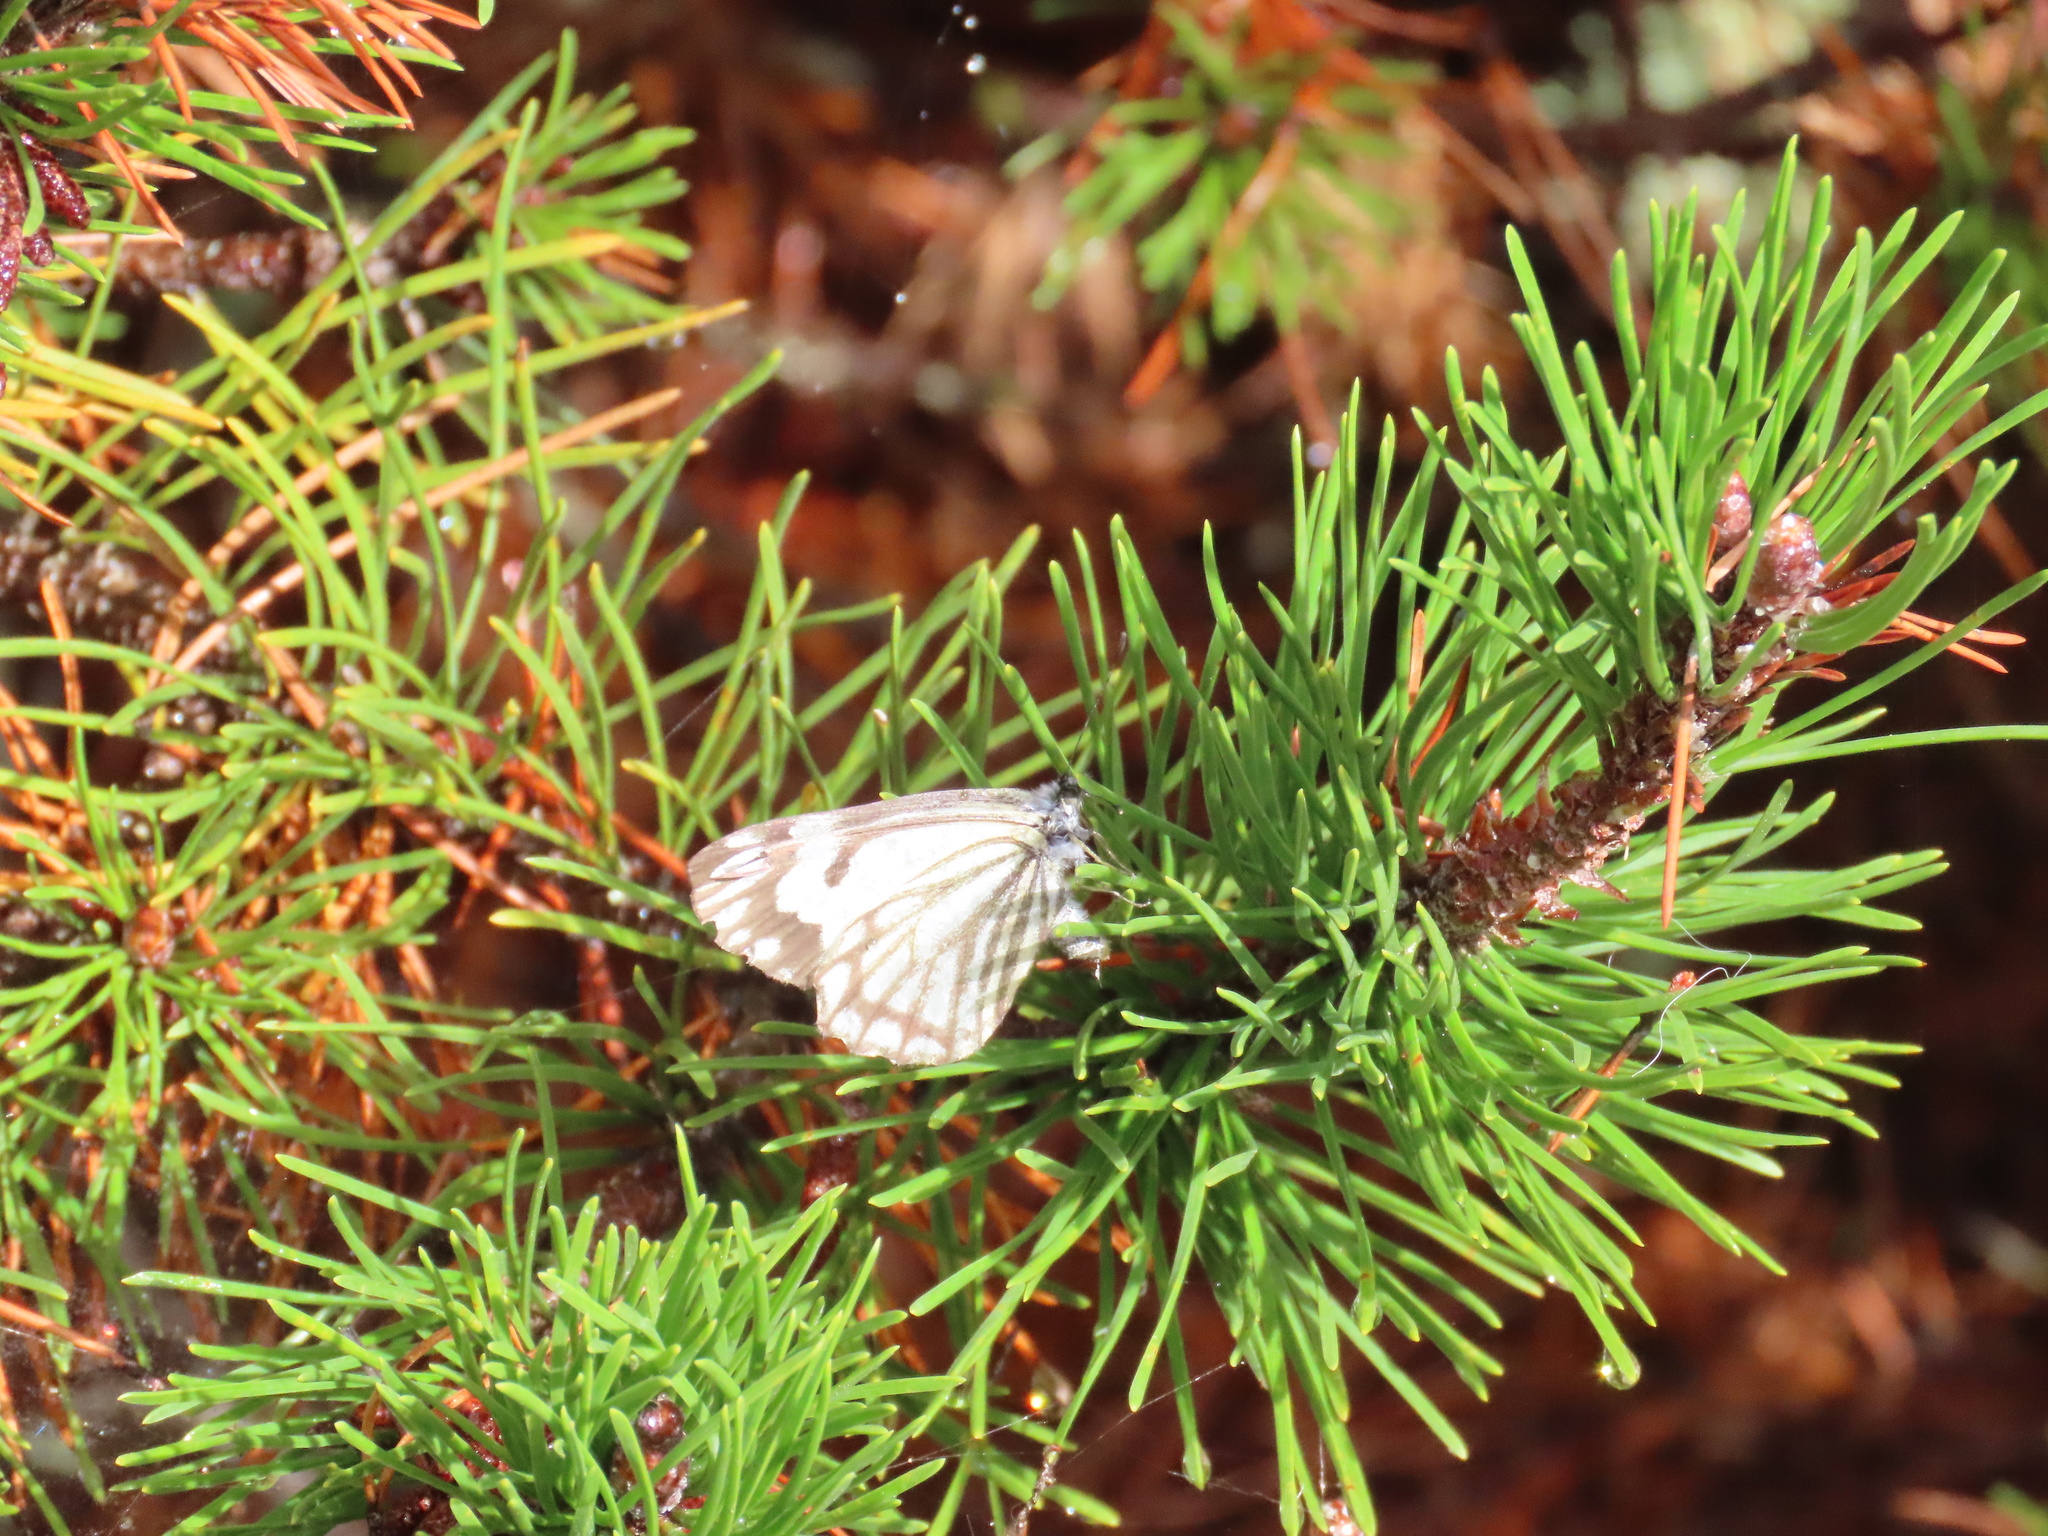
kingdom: Animalia
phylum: Arthropoda
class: Insecta
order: Lepidoptera
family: Pieridae
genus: Neophasia
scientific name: Neophasia menapia
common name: Pine white
